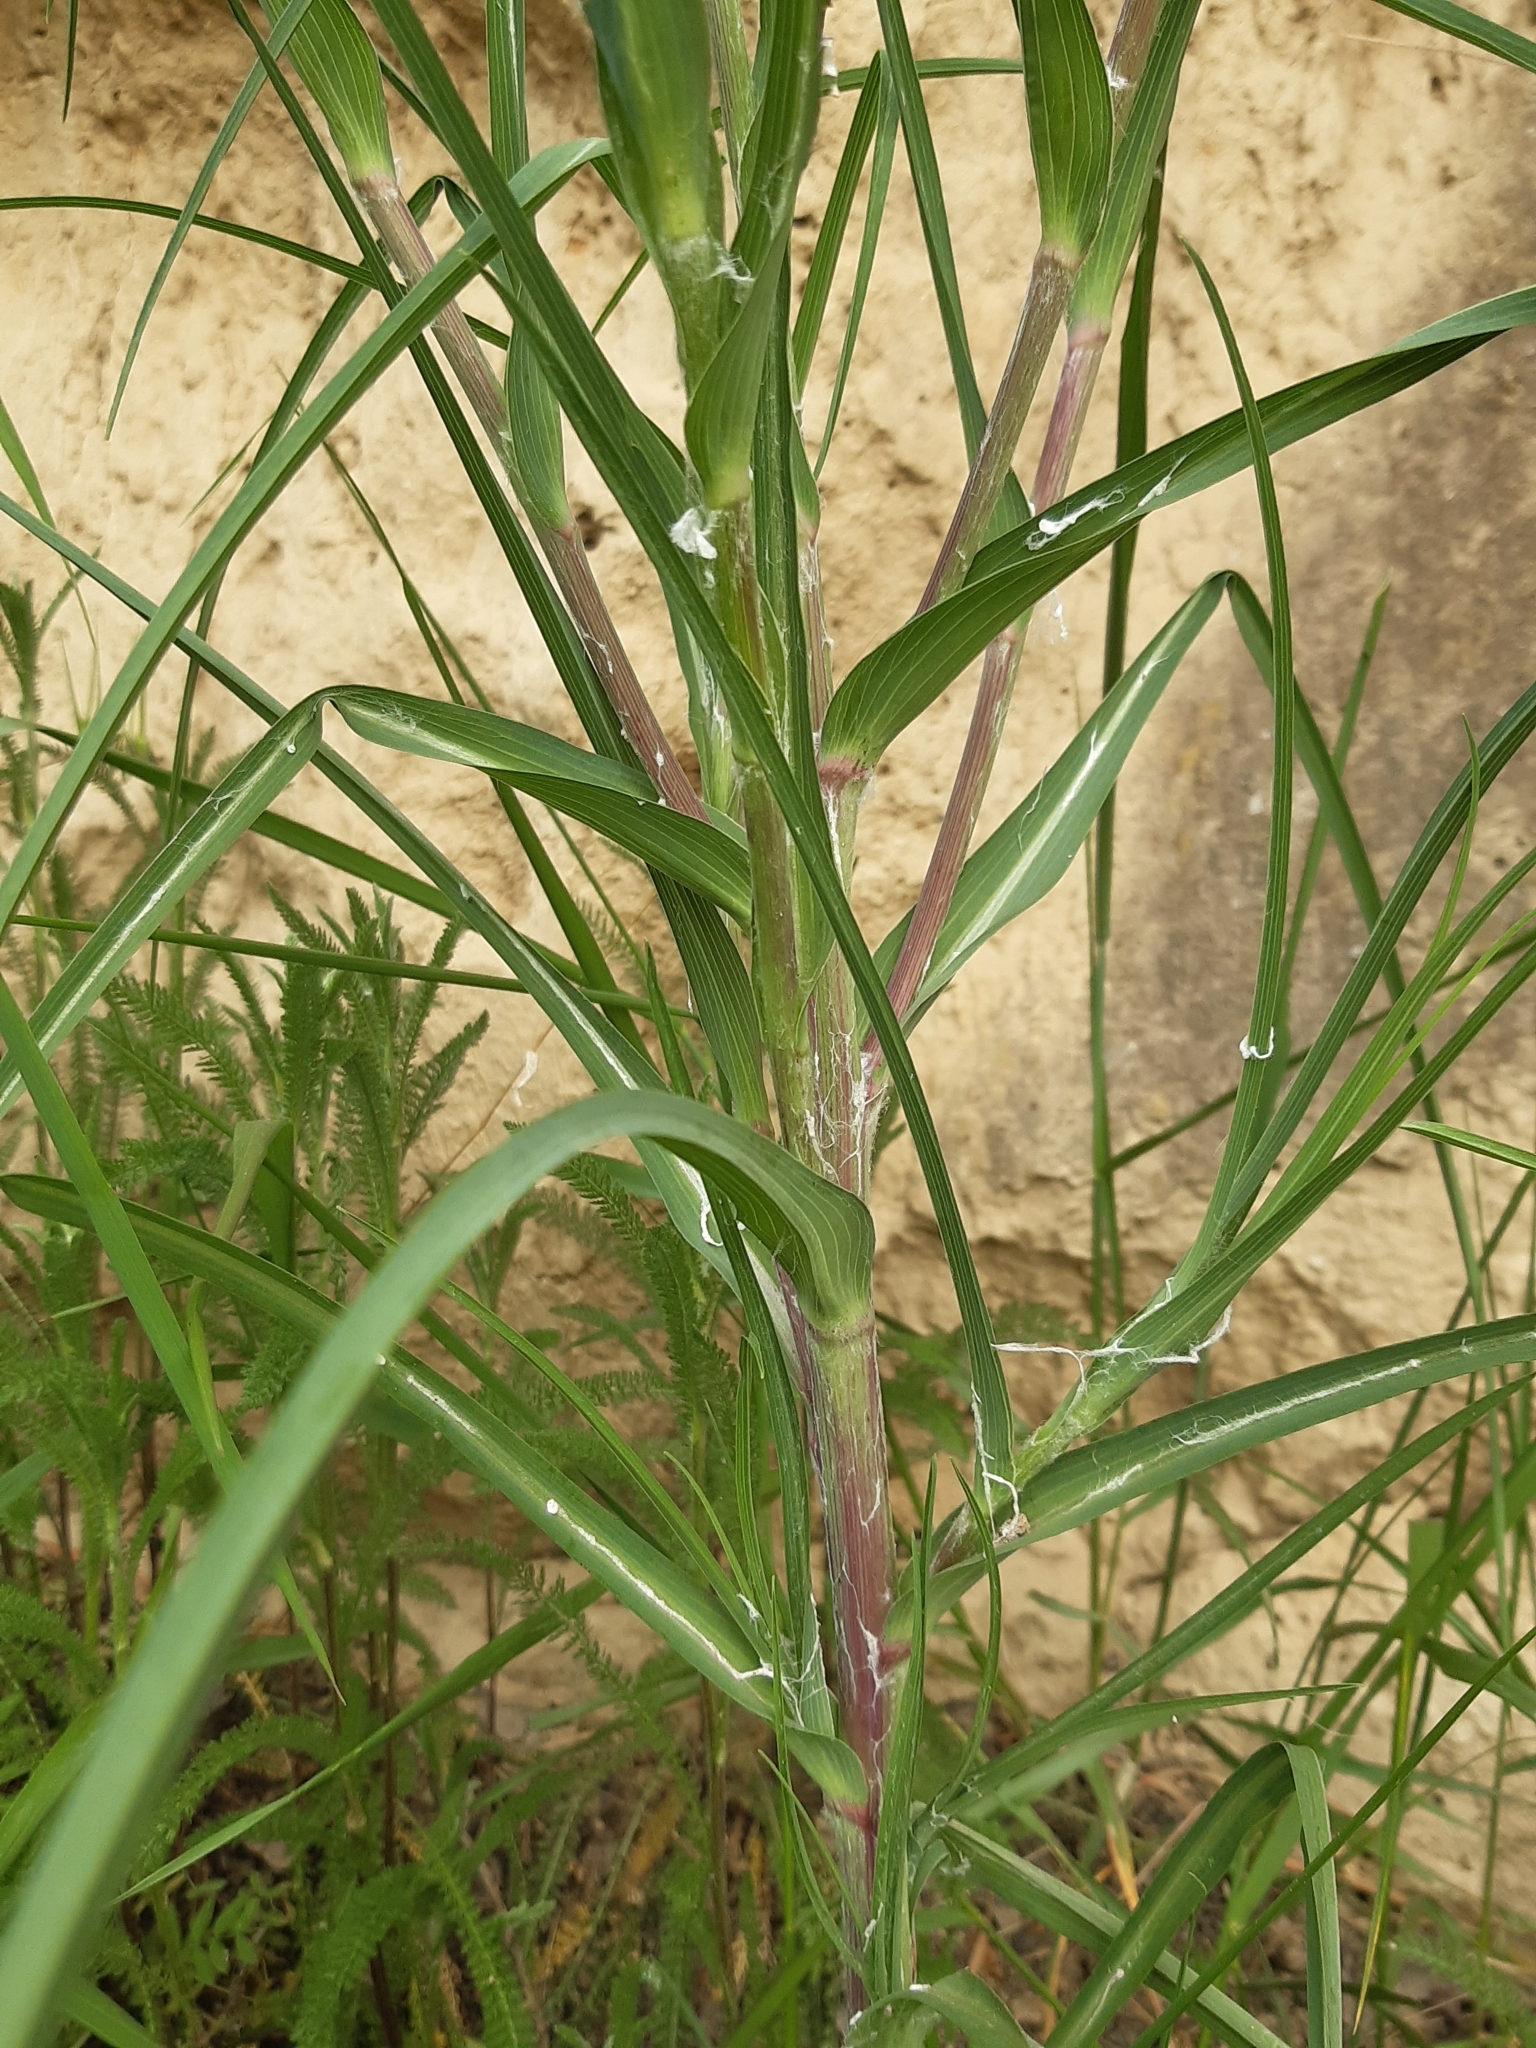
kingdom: Plantae
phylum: Tracheophyta
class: Magnoliopsida
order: Asterales
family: Asteraceae
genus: Tragopogon
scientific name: Tragopogon dubius
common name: Yellow salsify
